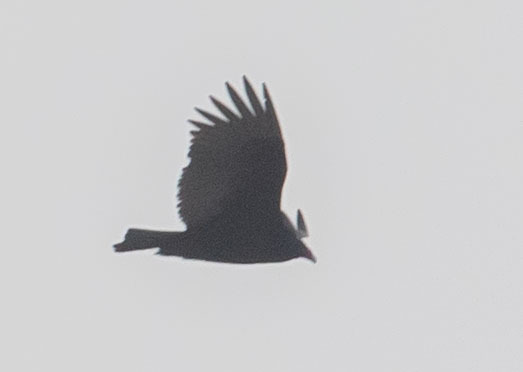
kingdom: Animalia
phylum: Chordata
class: Aves
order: Accipitriformes
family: Cathartidae
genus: Cathartes
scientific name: Cathartes aura
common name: Turkey vulture
